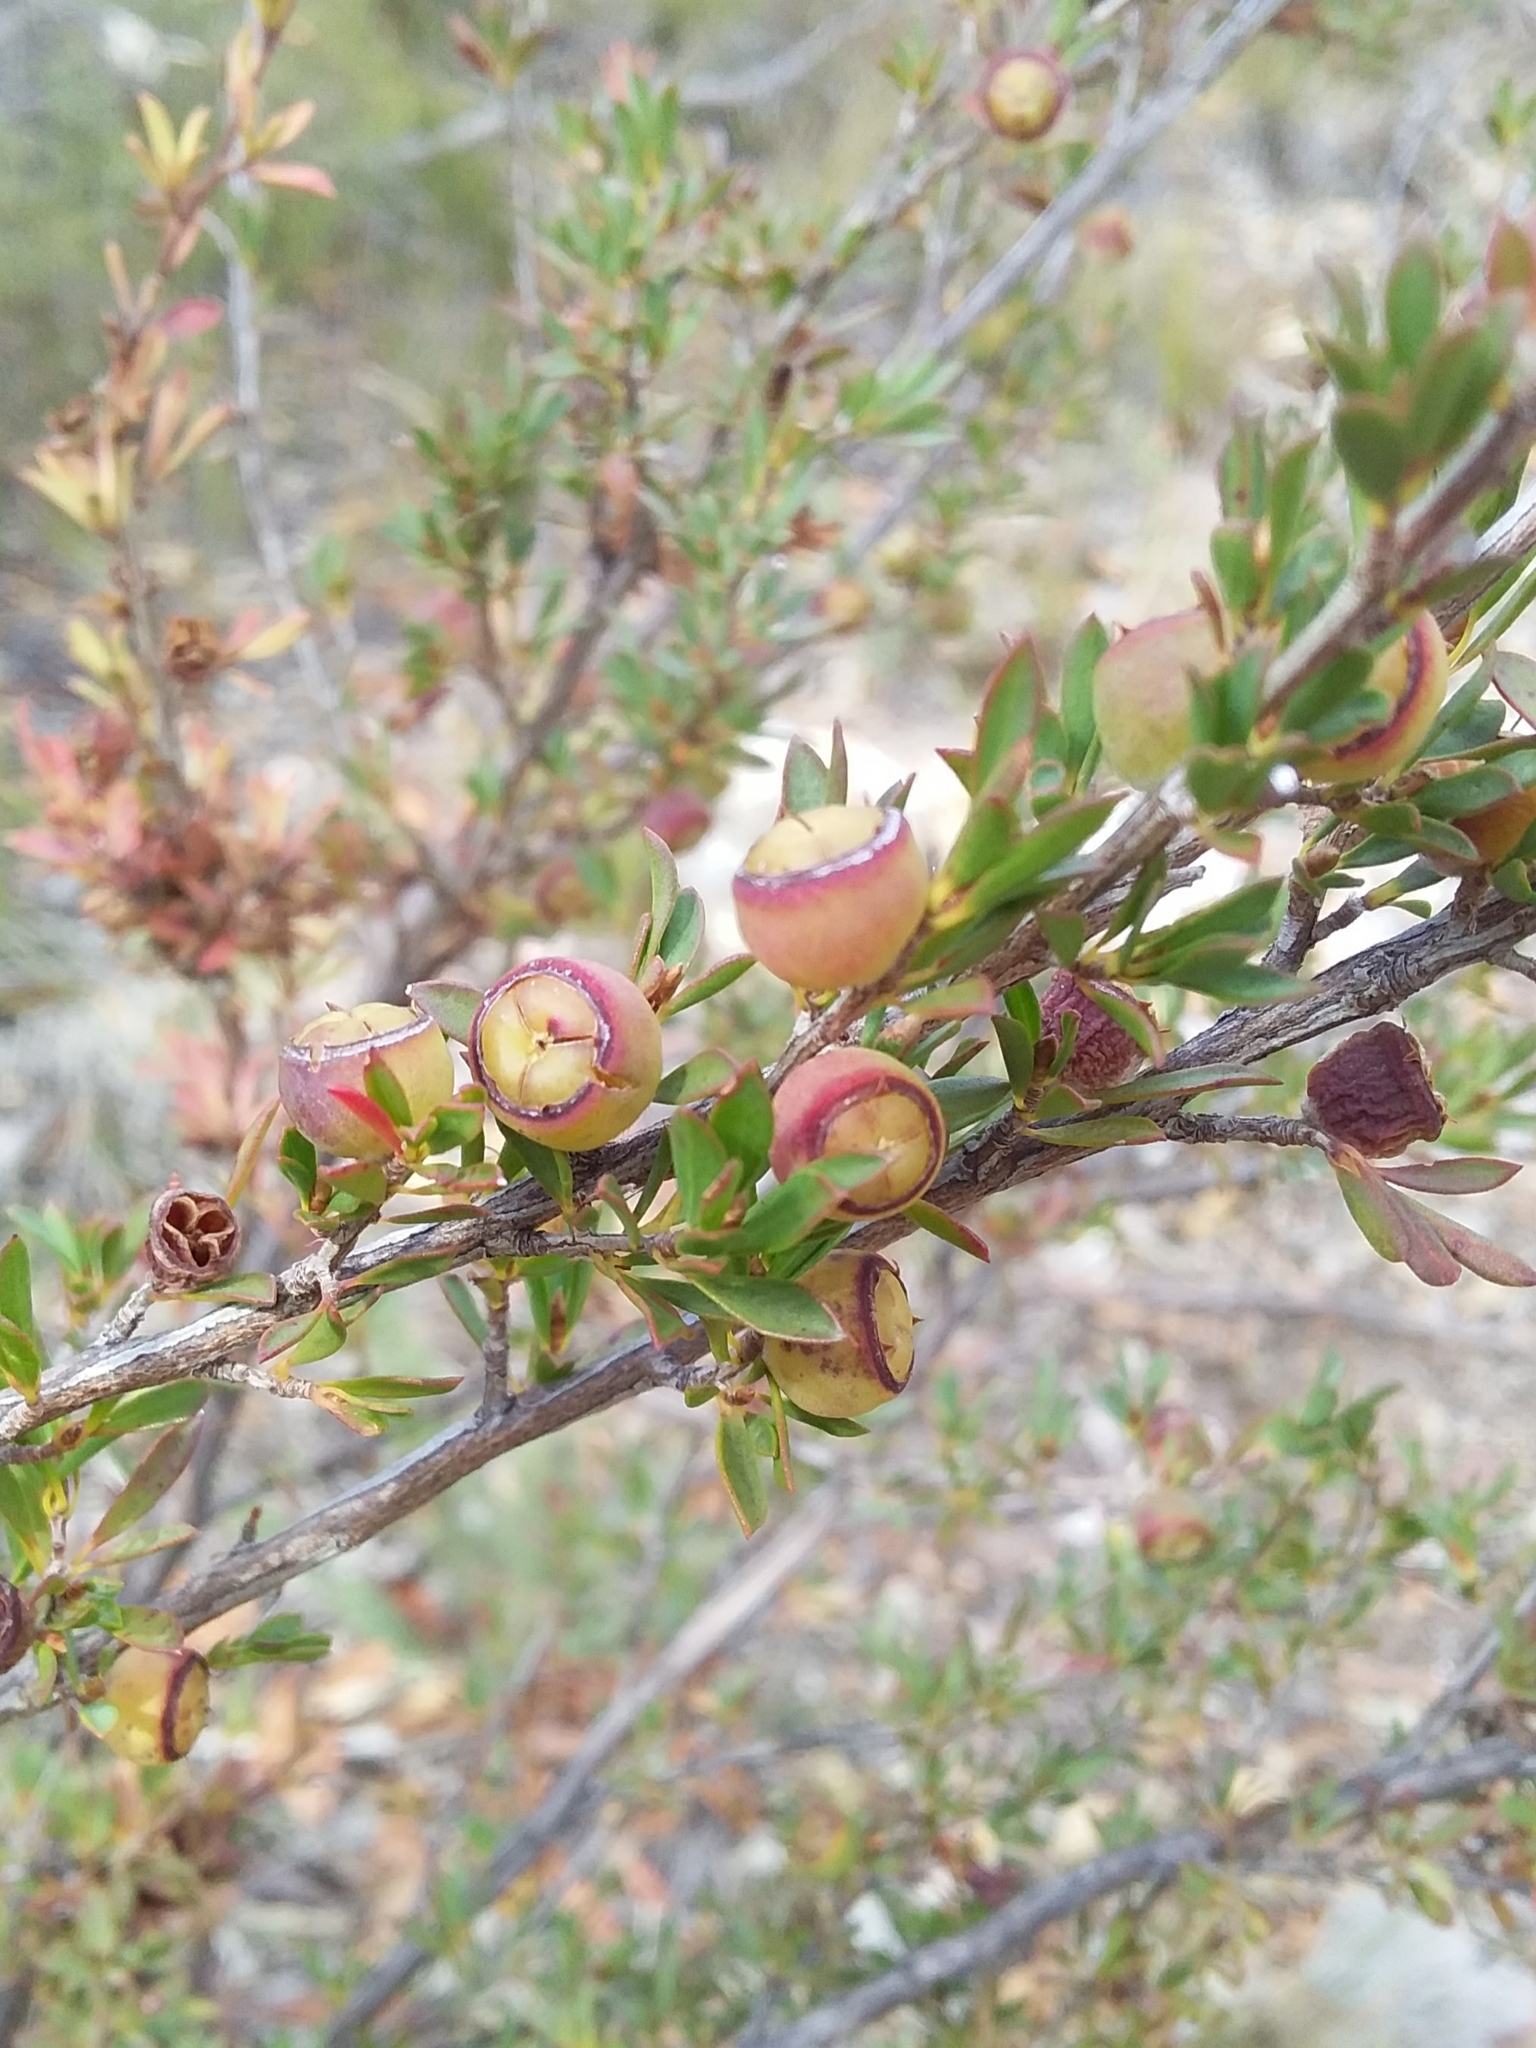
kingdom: Plantae
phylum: Tracheophyta
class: Magnoliopsida
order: Myrtales
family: Myrtaceae
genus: Leptospermum
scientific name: Leptospermum myrsinoides
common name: Heath teatree
